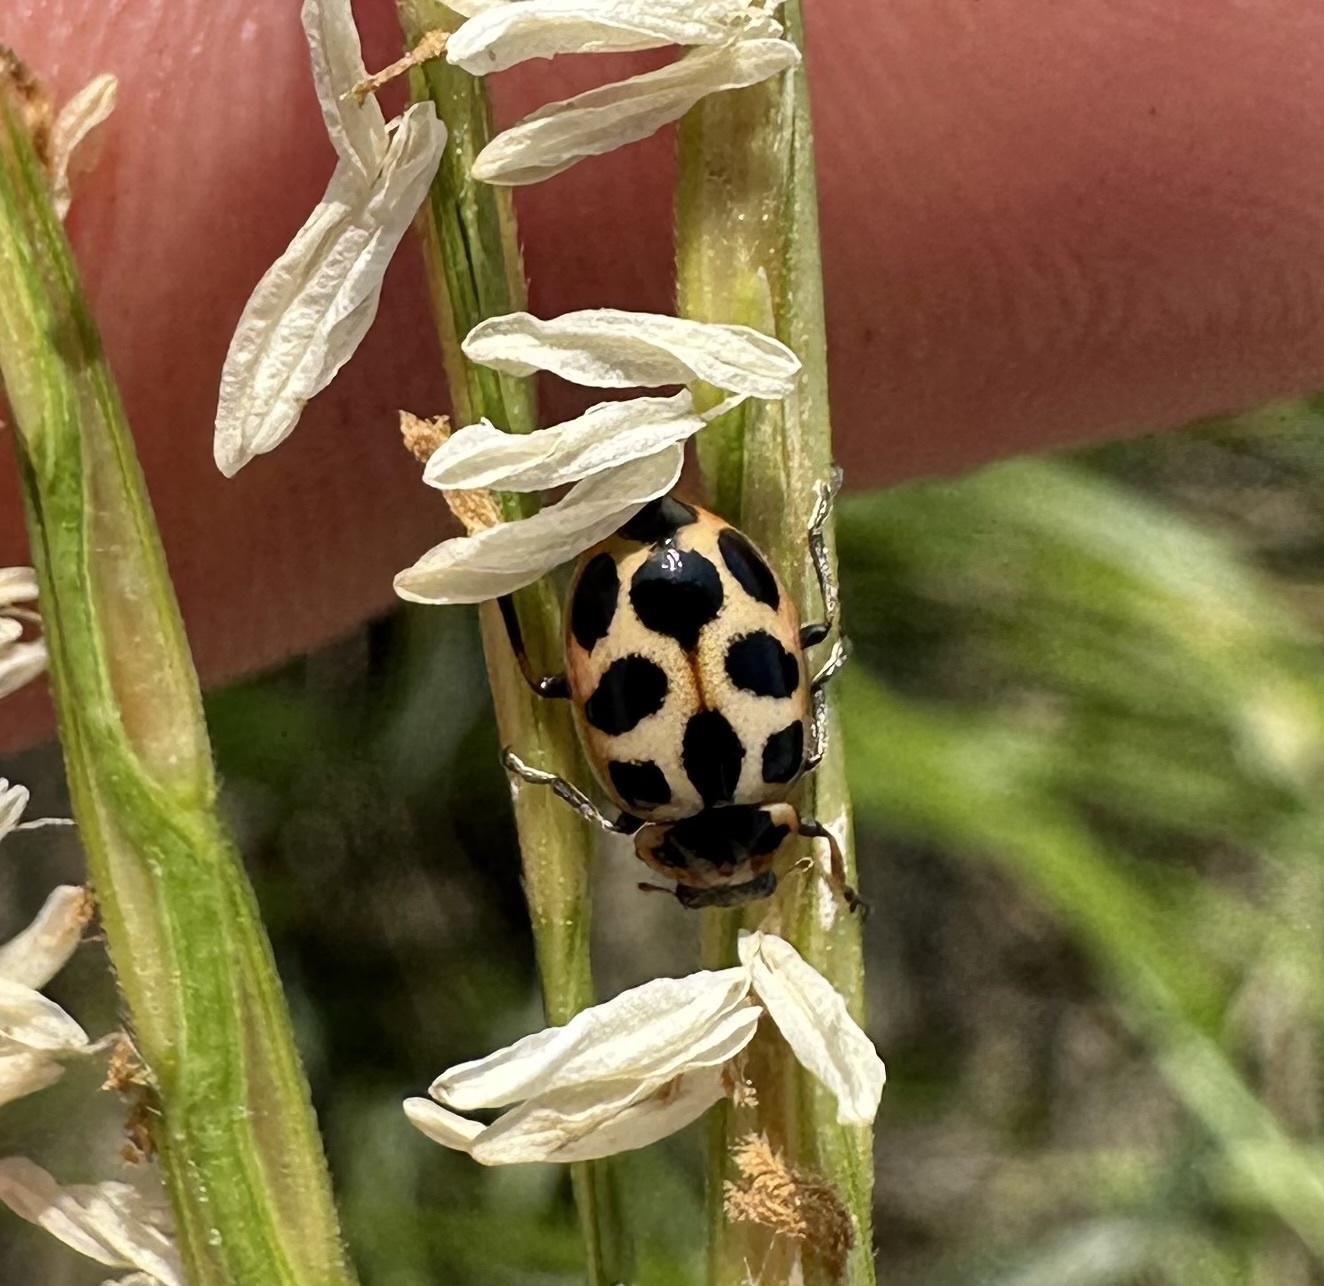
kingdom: Animalia
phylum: Arthropoda
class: Insecta
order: Coleoptera
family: Coccinellidae
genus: Naemia
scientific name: Naemia seriata
